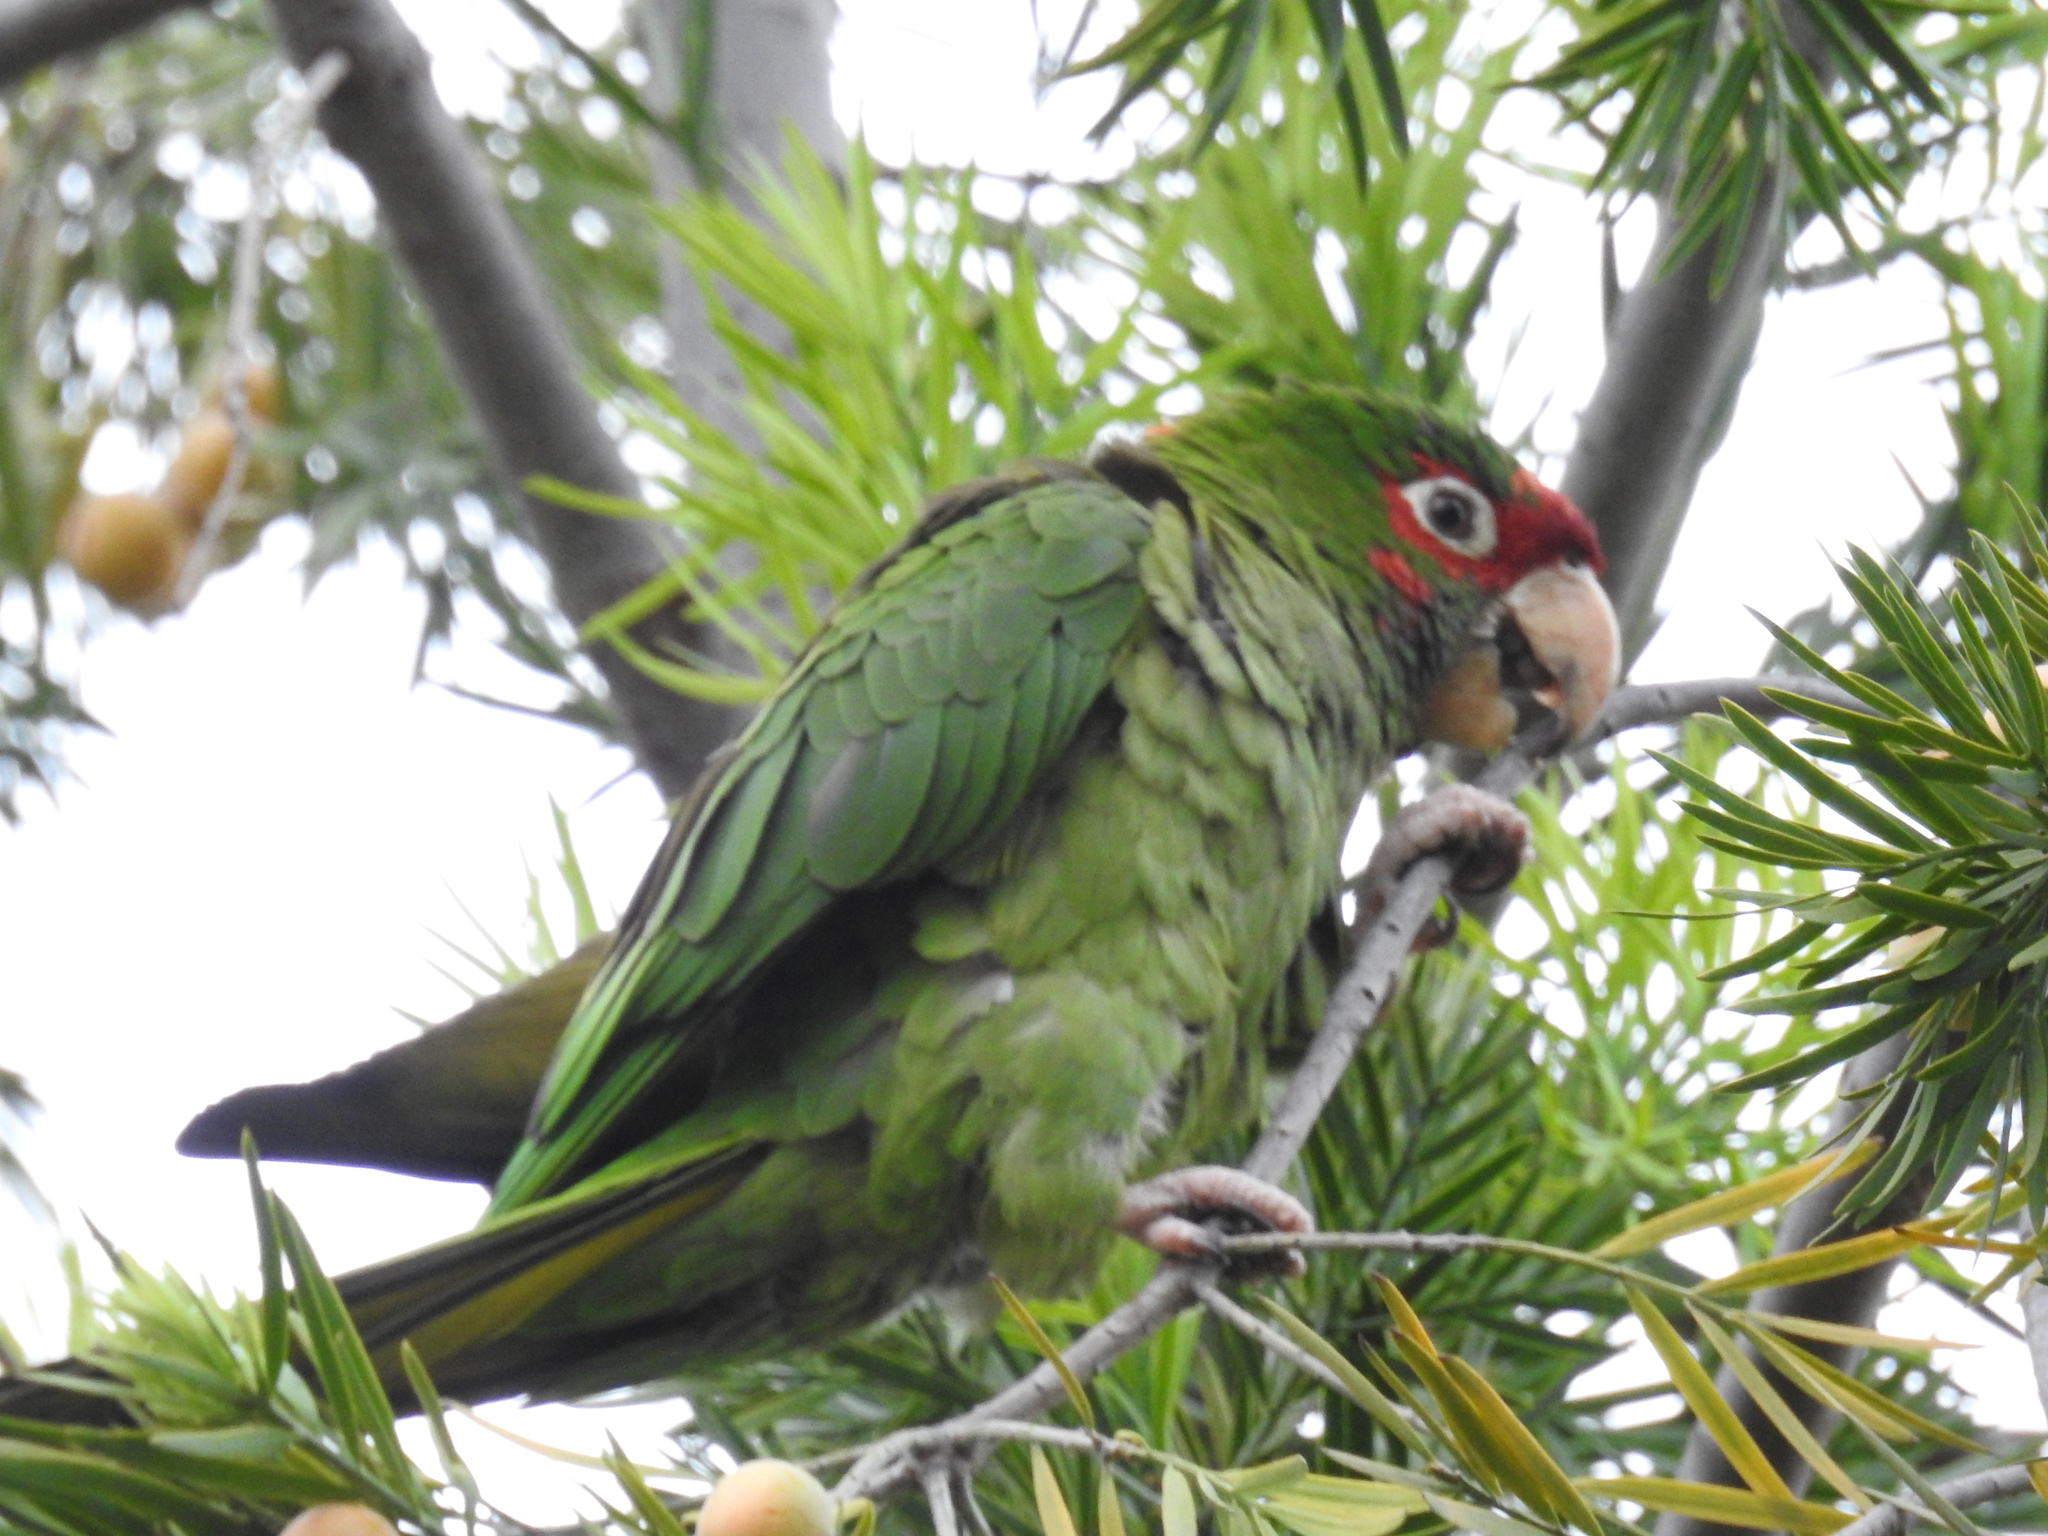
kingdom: Animalia
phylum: Chordata
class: Aves
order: Psittaciformes
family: Psittacidae
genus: Aratinga
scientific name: Aratinga mitrata
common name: Mitred parakeet
